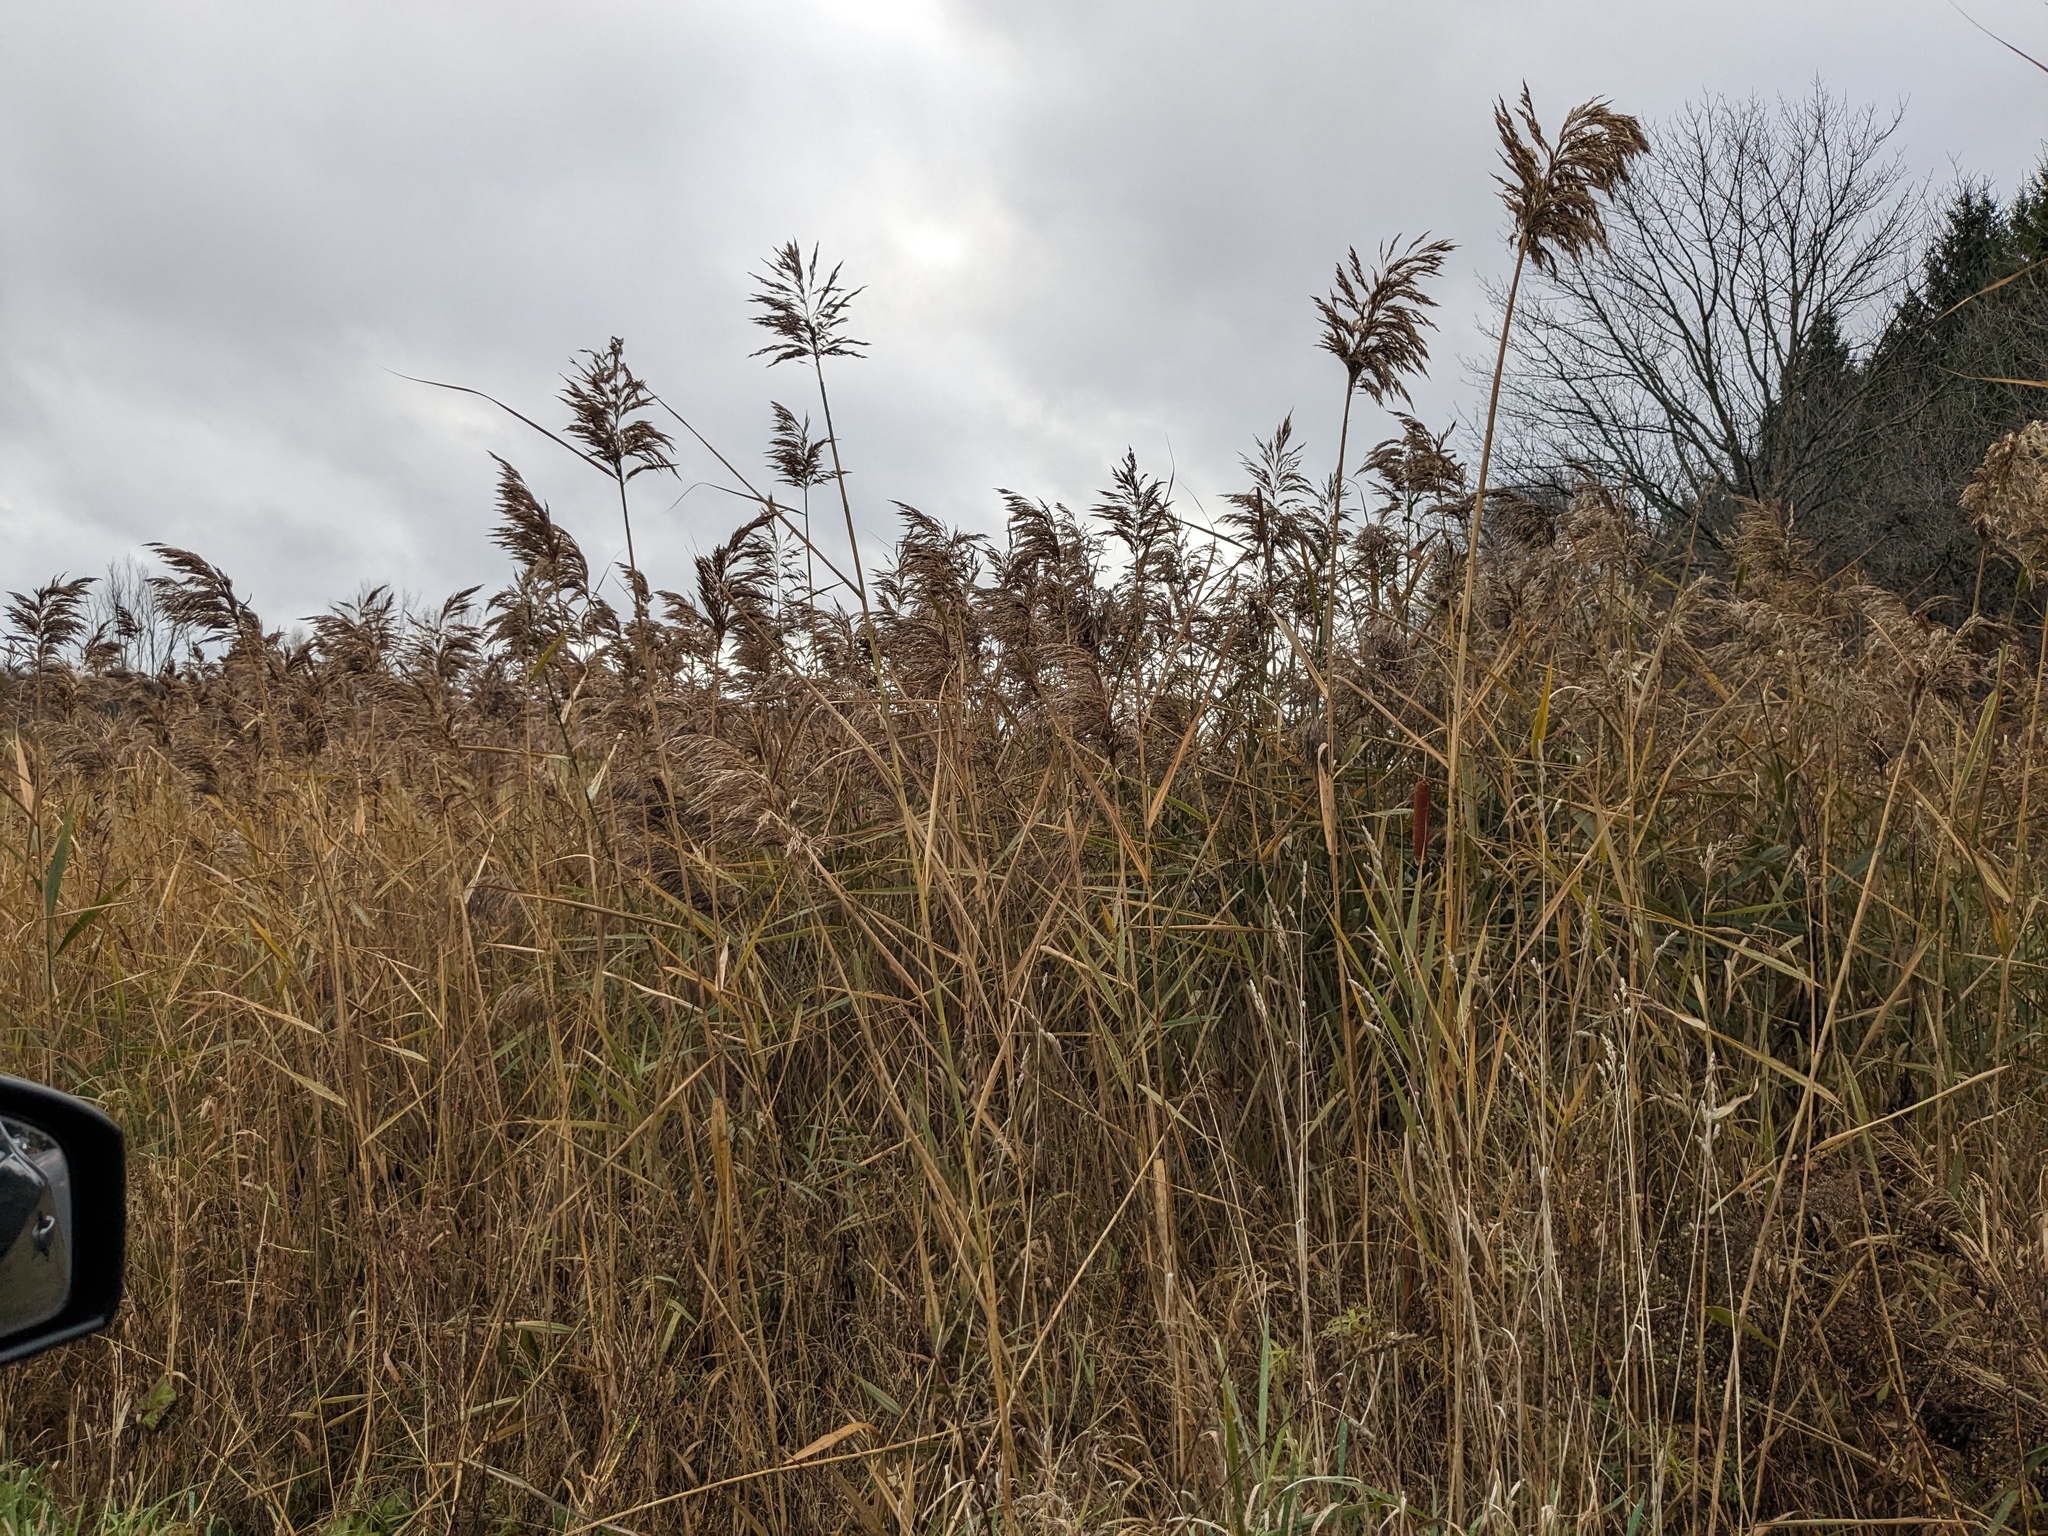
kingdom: Plantae
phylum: Tracheophyta
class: Liliopsida
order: Poales
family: Poaceae
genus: Phragmites
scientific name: Phragmites australis
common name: Common reed
